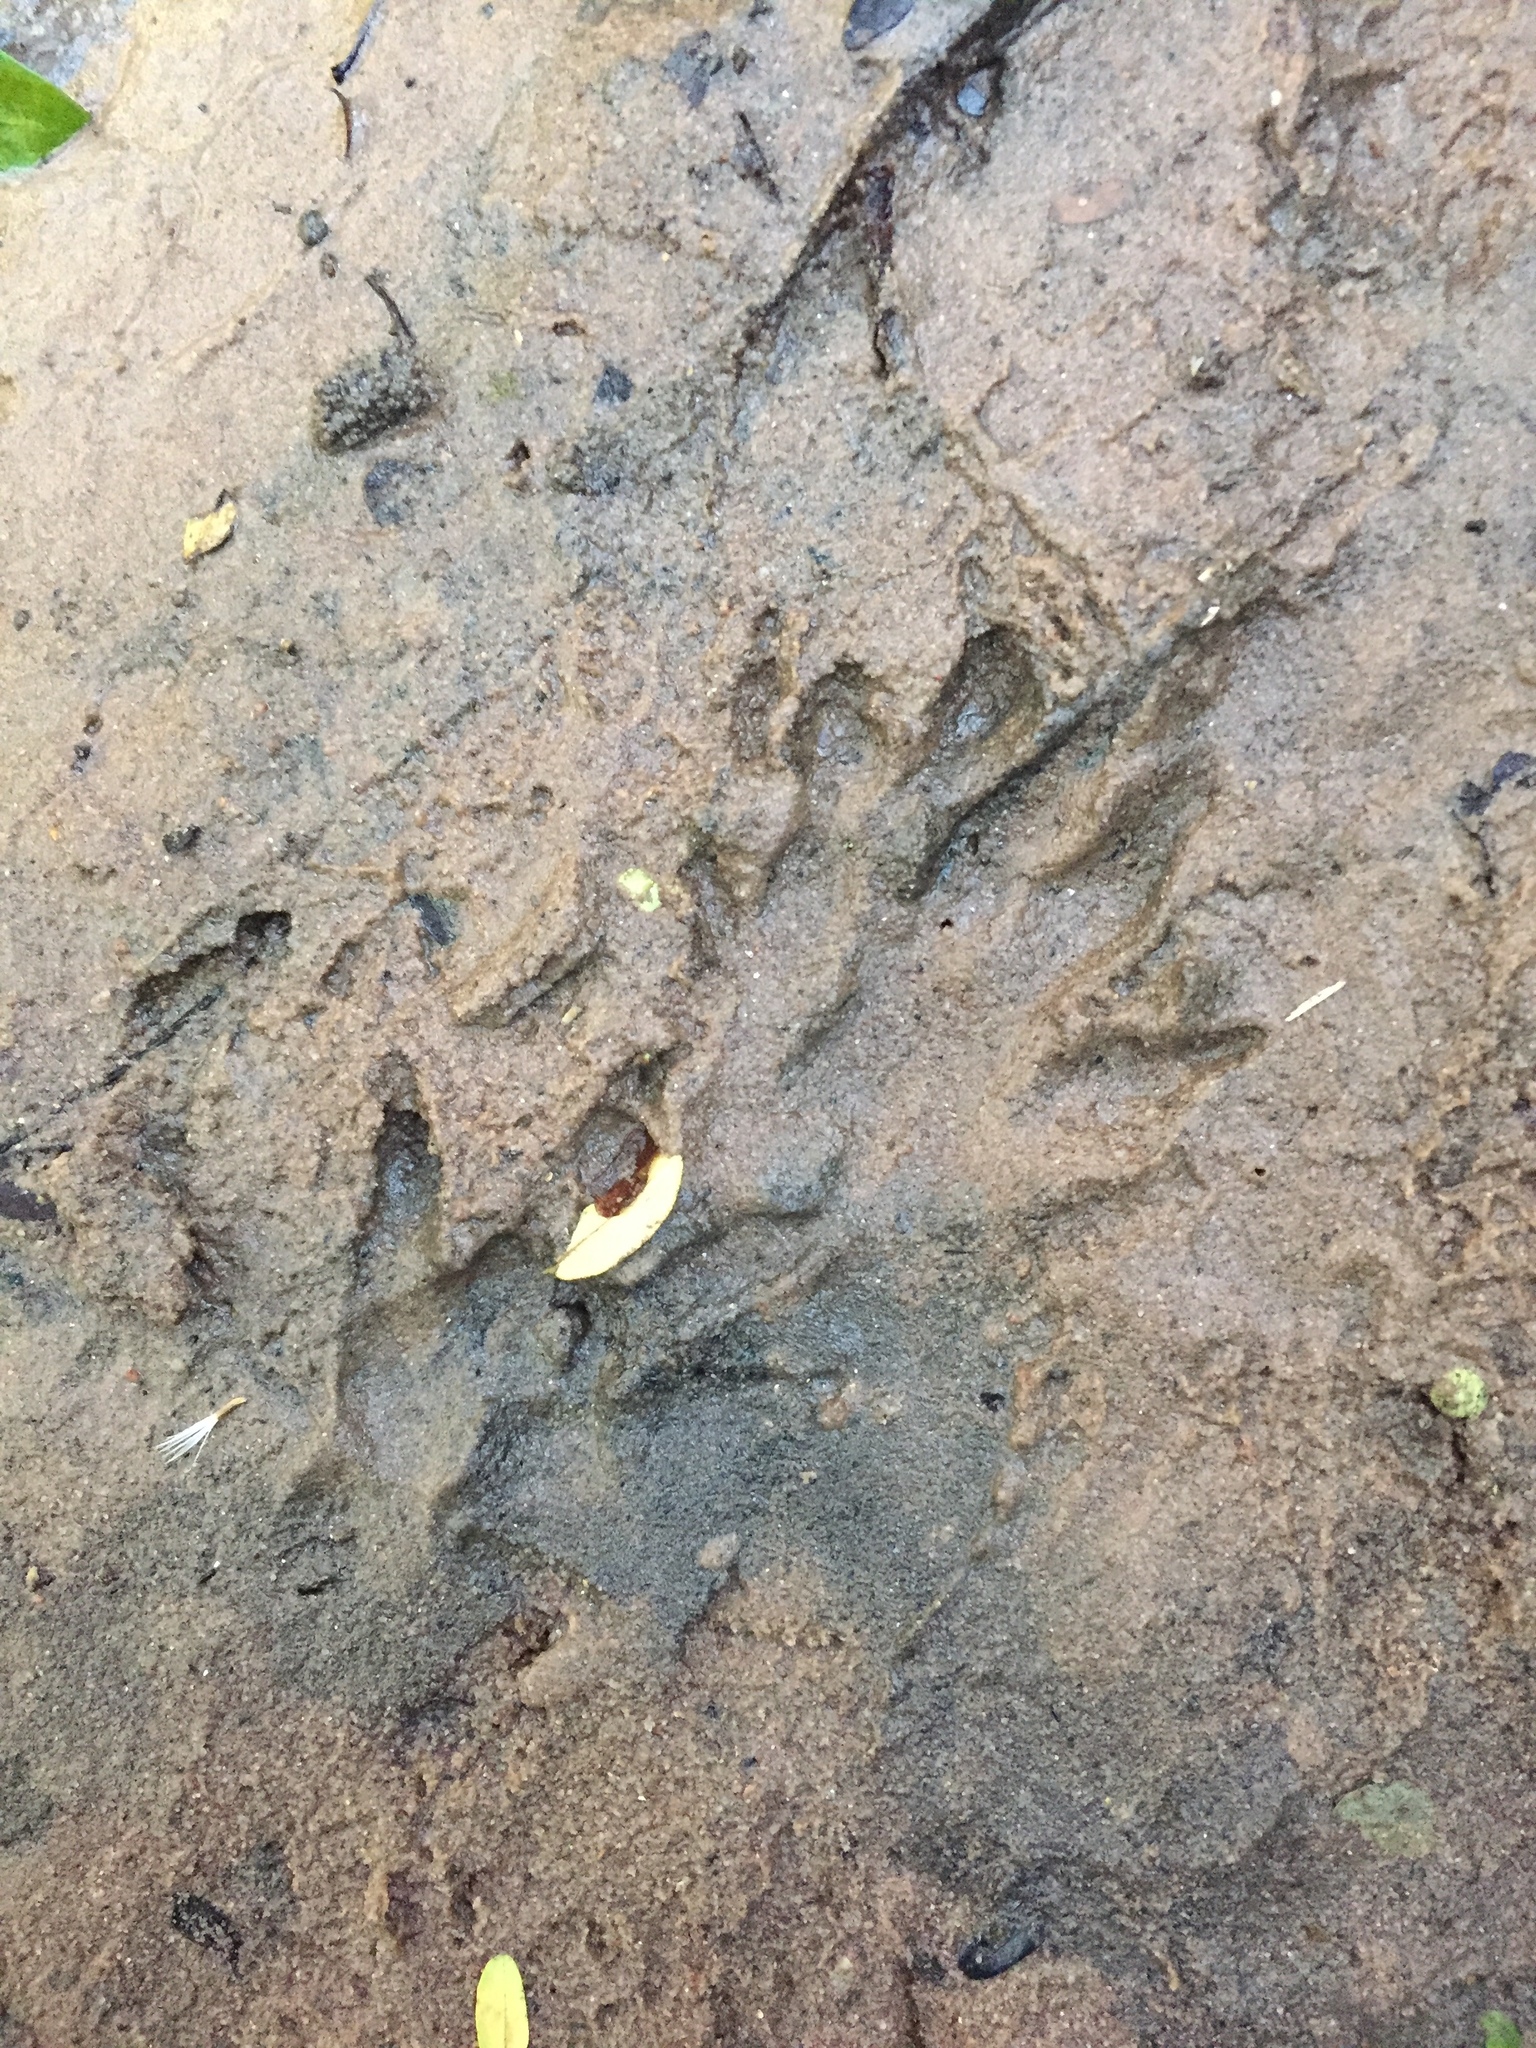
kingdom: Animalia
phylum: Chordata
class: Mammalia
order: Carnivora
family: Herpestidae
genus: Atilax
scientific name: Atilax paludinosus
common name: Marsh mongoose
